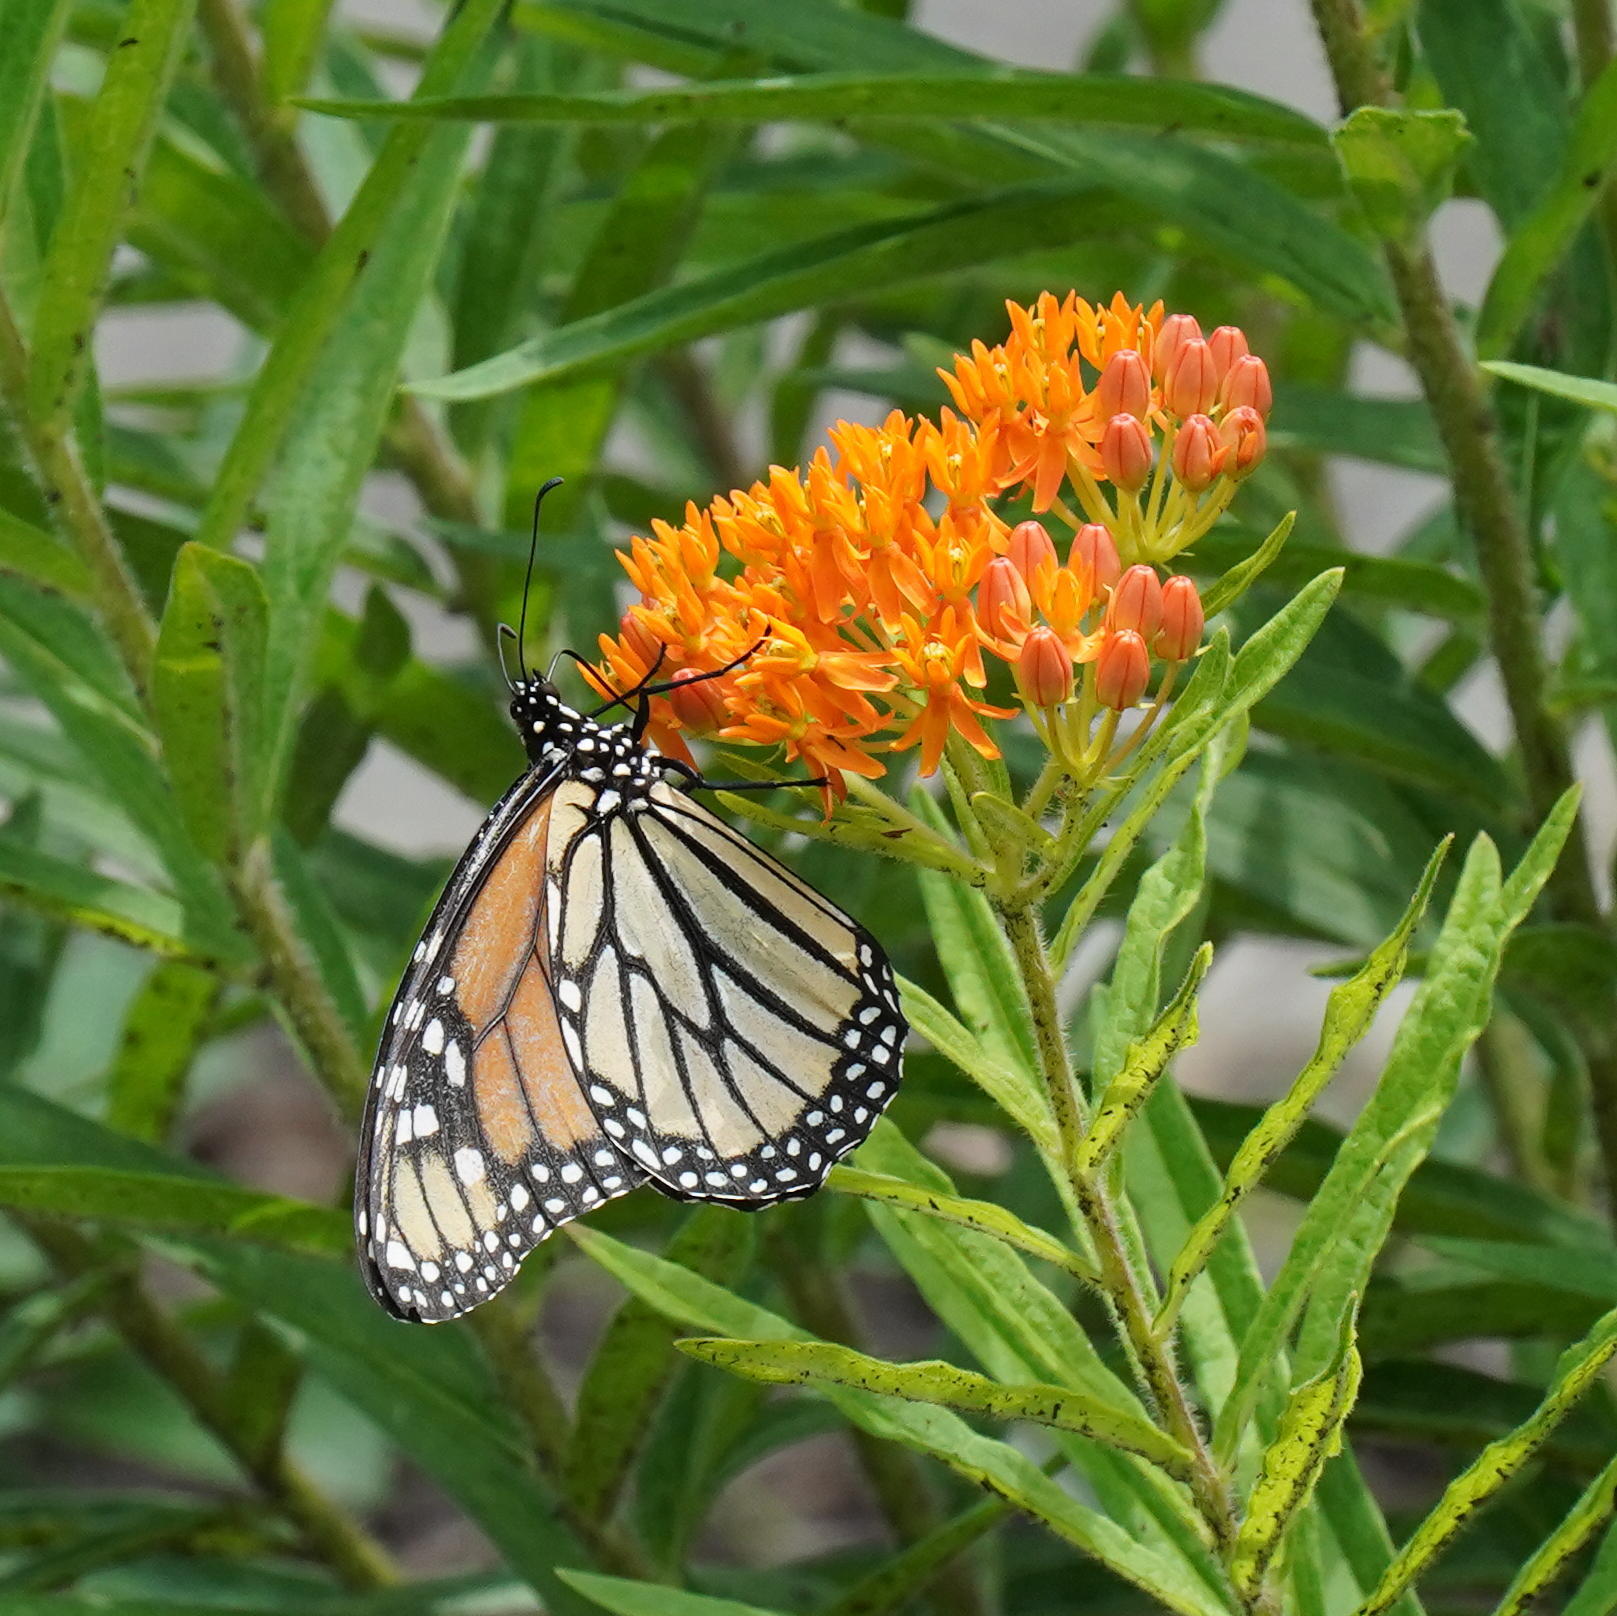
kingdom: Animalia
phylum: Arthropoda
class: Insecta
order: Lepidoptera
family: Nymphalidae
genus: Danaus
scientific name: Danaus plexippus
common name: Monarch
